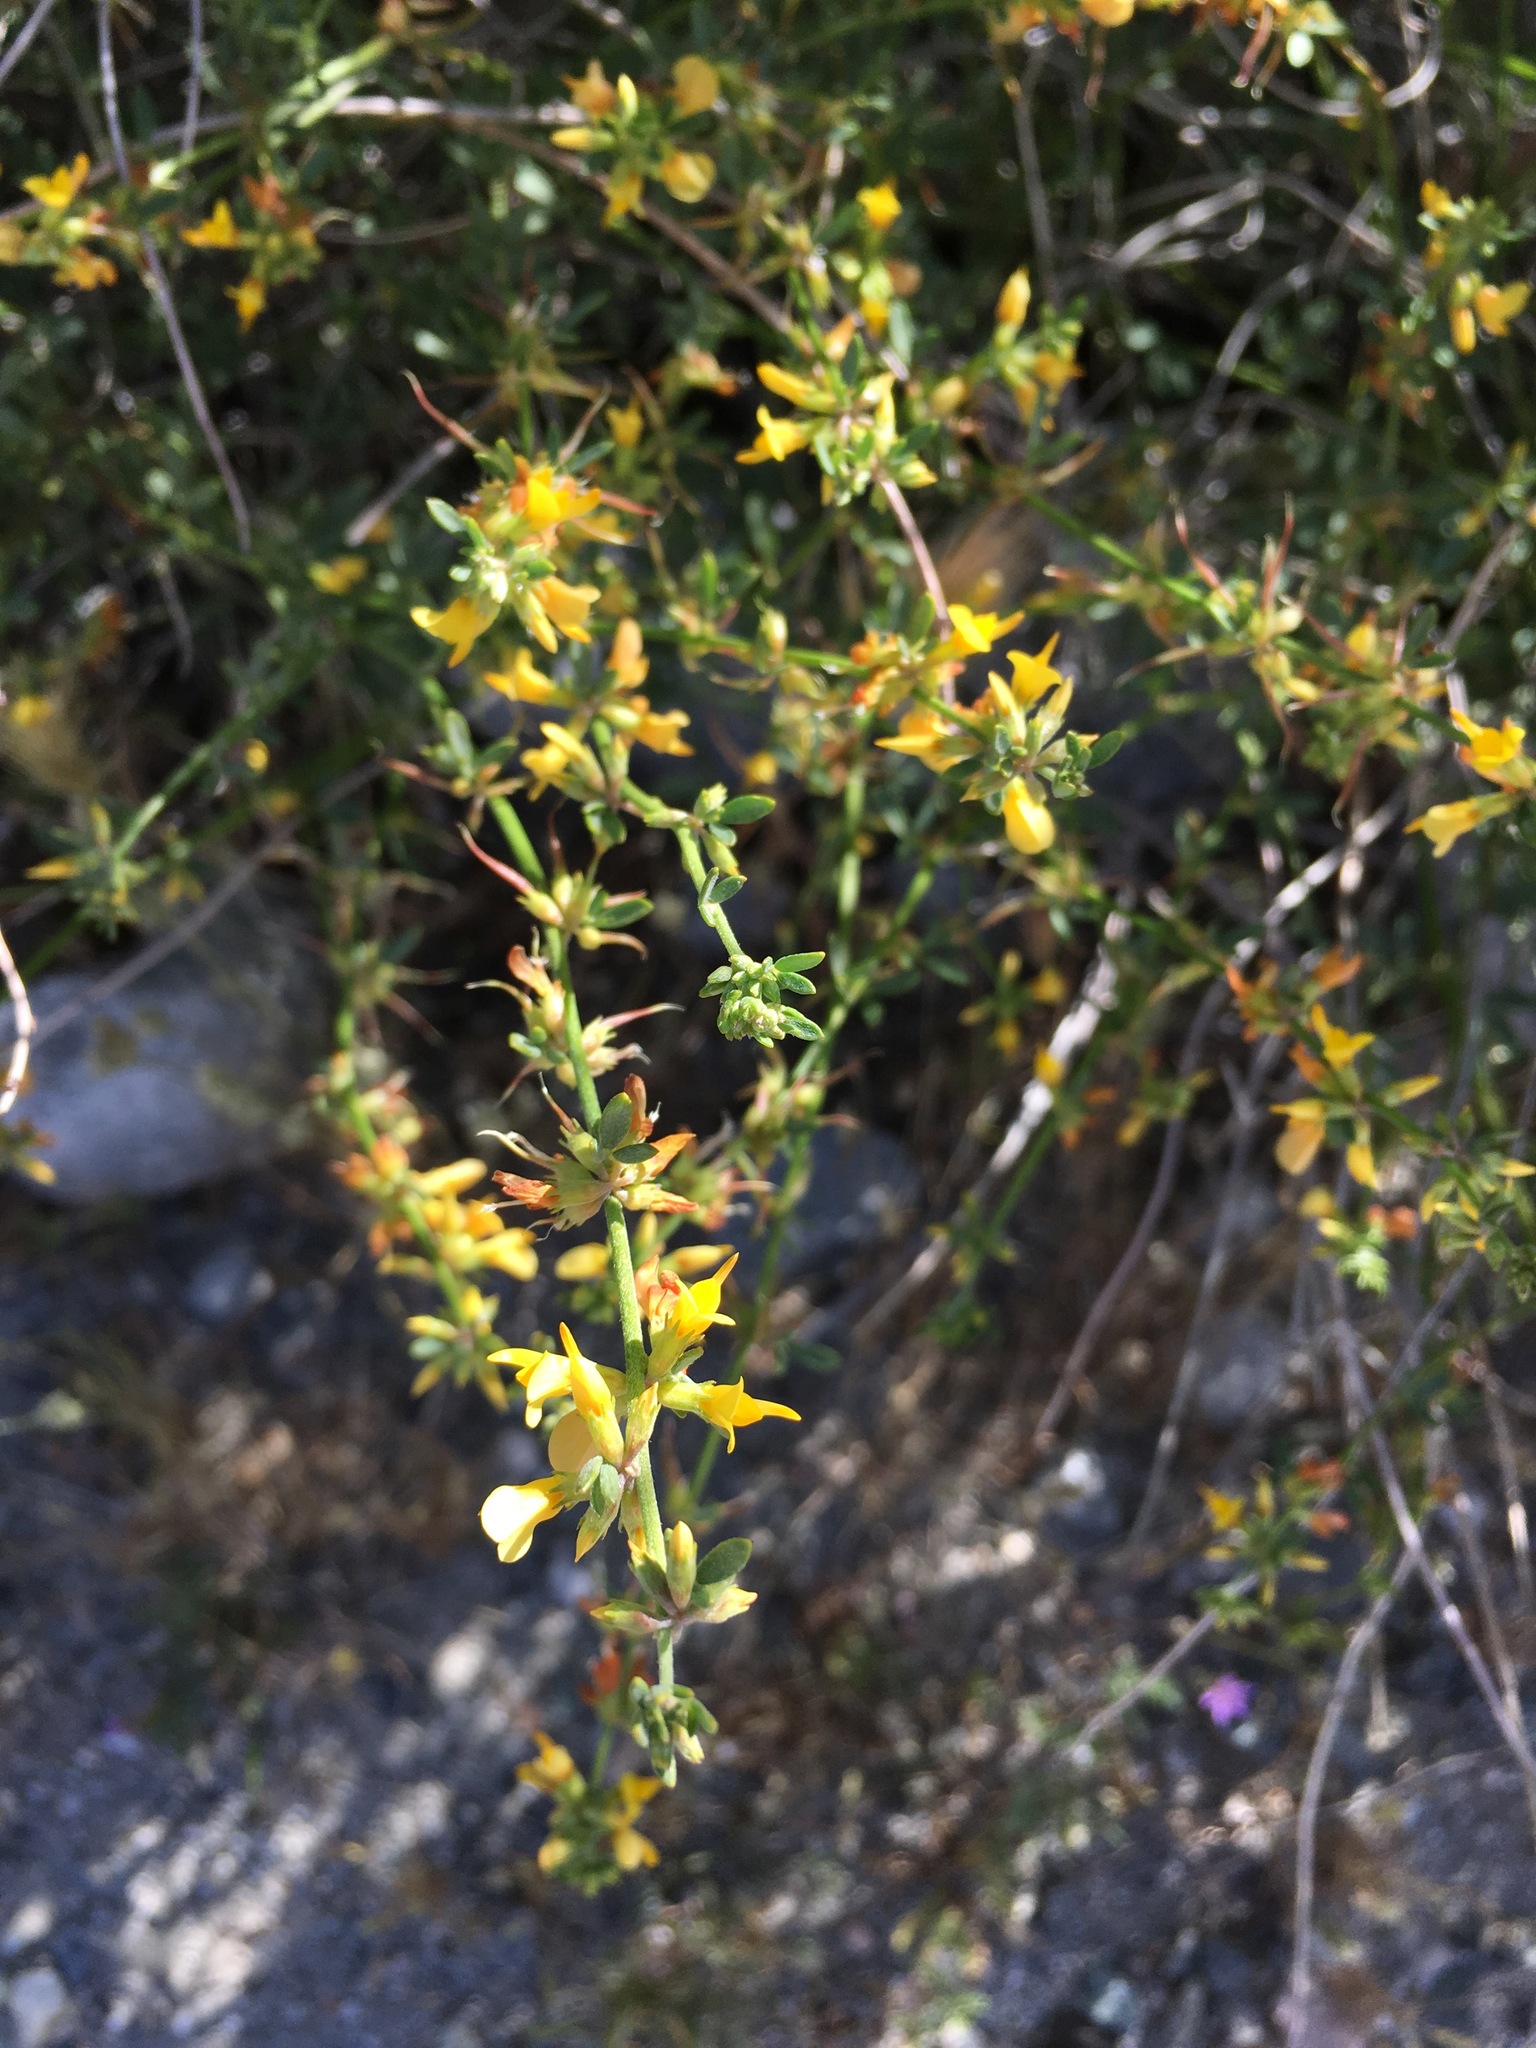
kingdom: Plantae
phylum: Tracheophyta
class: Magnoliopsida
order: Fabales
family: Fabaceae
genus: Acmispon
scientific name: Acmispon glaber
